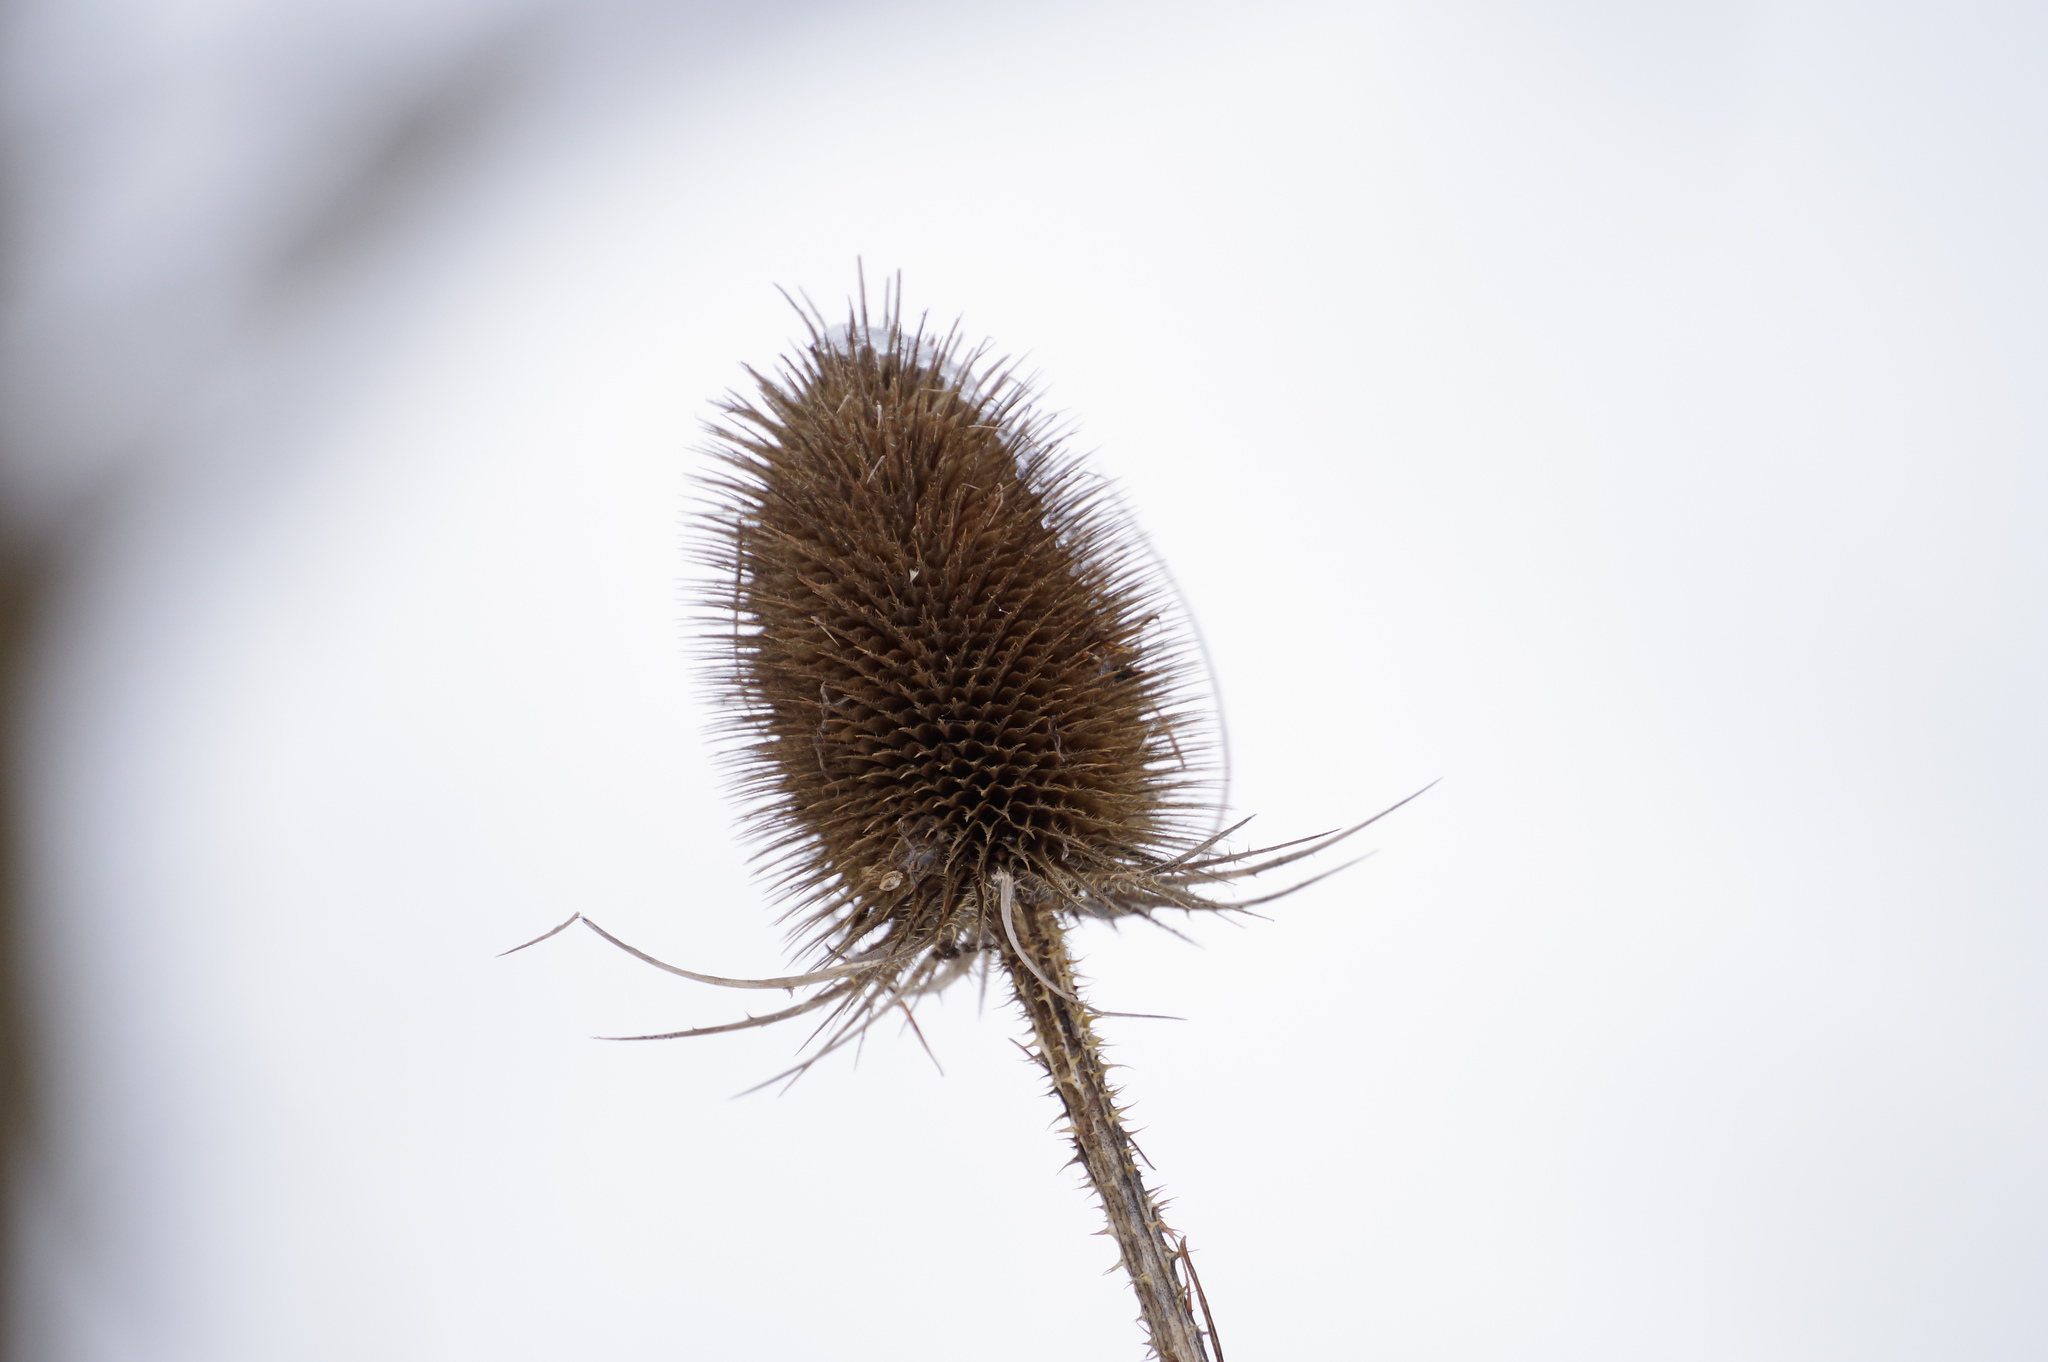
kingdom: Plantae
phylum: Tracheophyta
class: Magnoliopsida
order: Dipsacales
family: Caprifoliaceae
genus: Dipsacus
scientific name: Dipsacus fullonum
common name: Teasel
